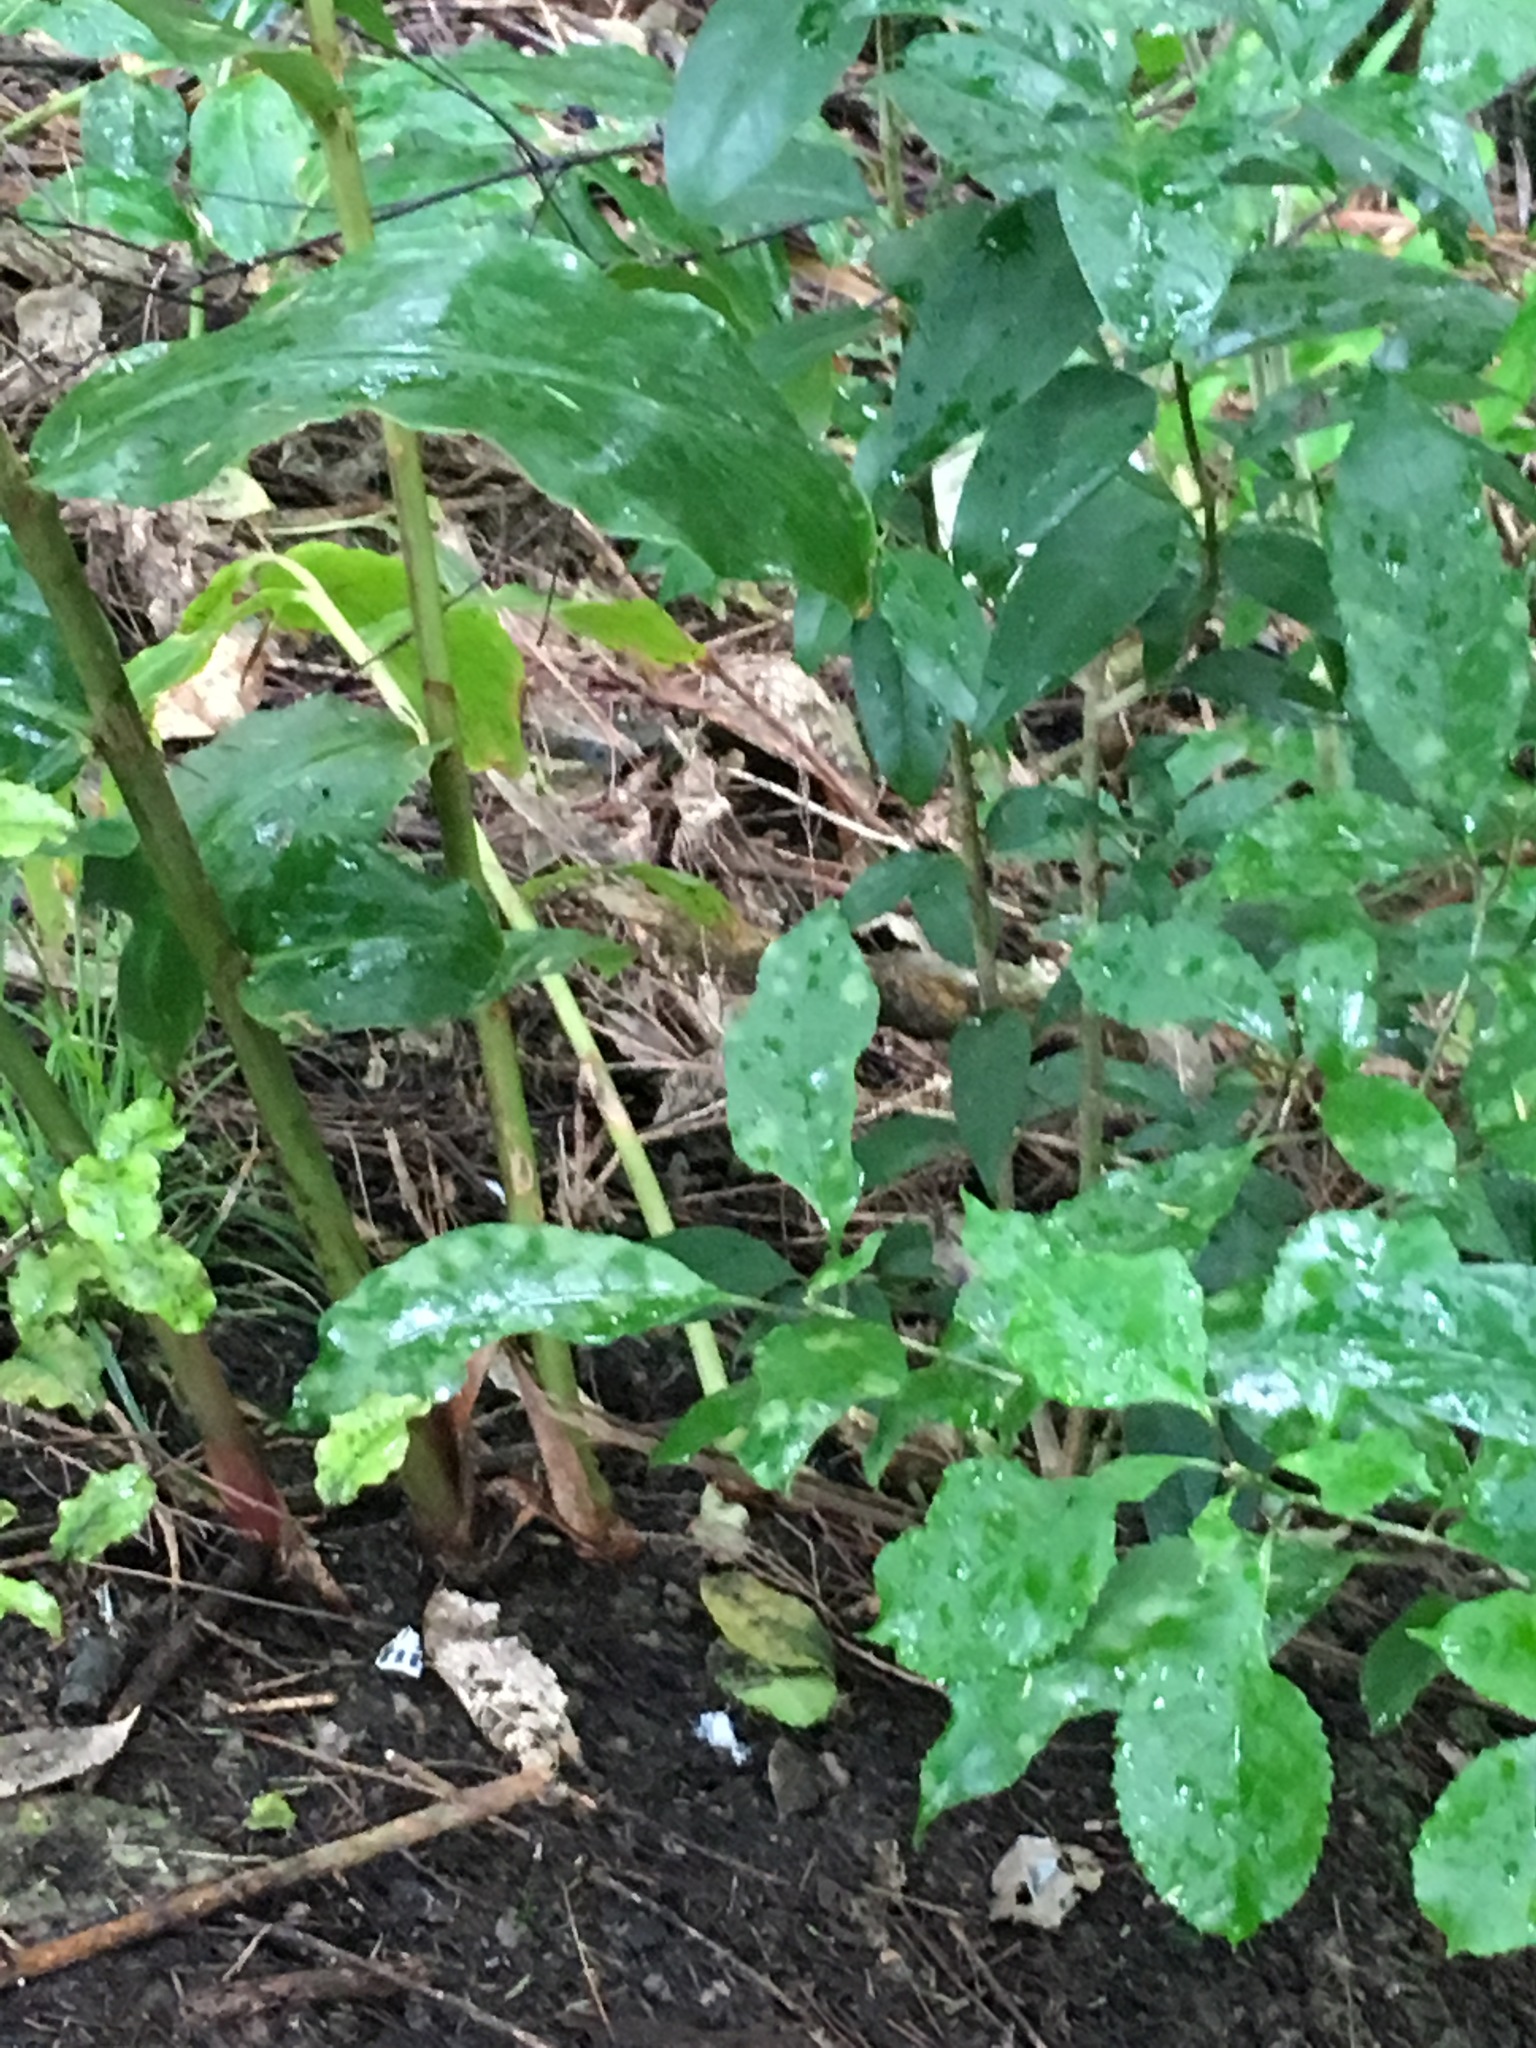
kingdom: Plantae
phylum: Tracheophyta
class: Liliopsida
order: Zingiberales
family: Zingiberaceae
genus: Hedychium
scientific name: Hedychium gardnerianum
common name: Himalayan ginger
